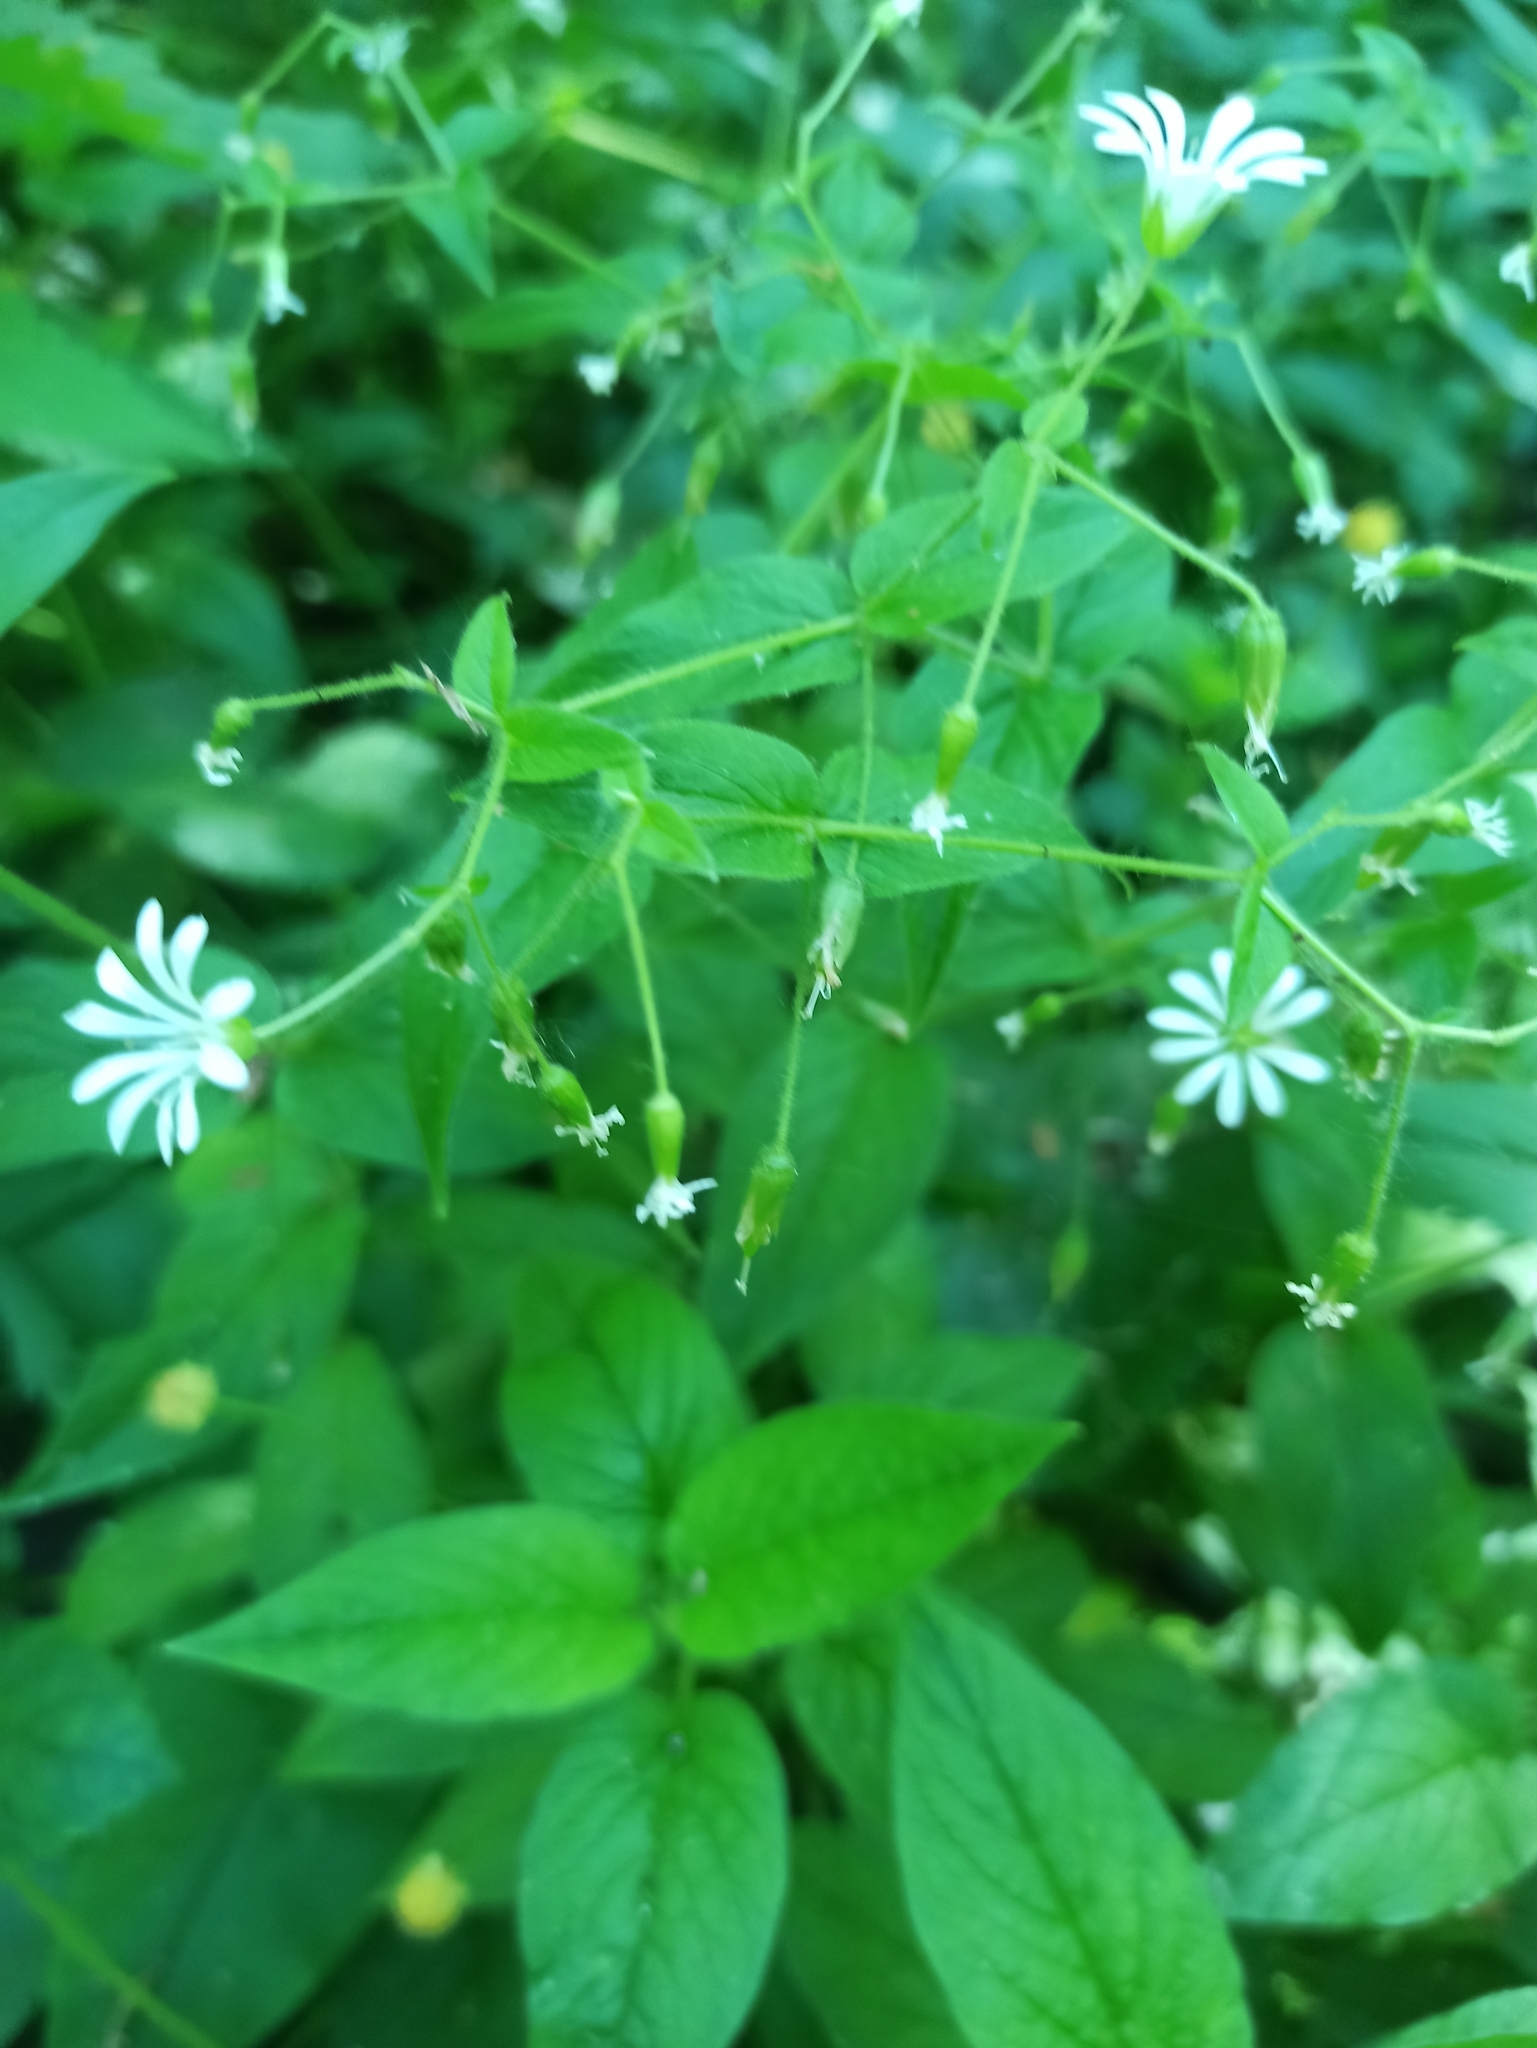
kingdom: Plantae
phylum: Tracheophyta
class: Magnoliopsida
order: Caryophyllales
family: Caryophyllaceae
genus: Stellaria
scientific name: Stellaria nemorum
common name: Wood stitchwort
